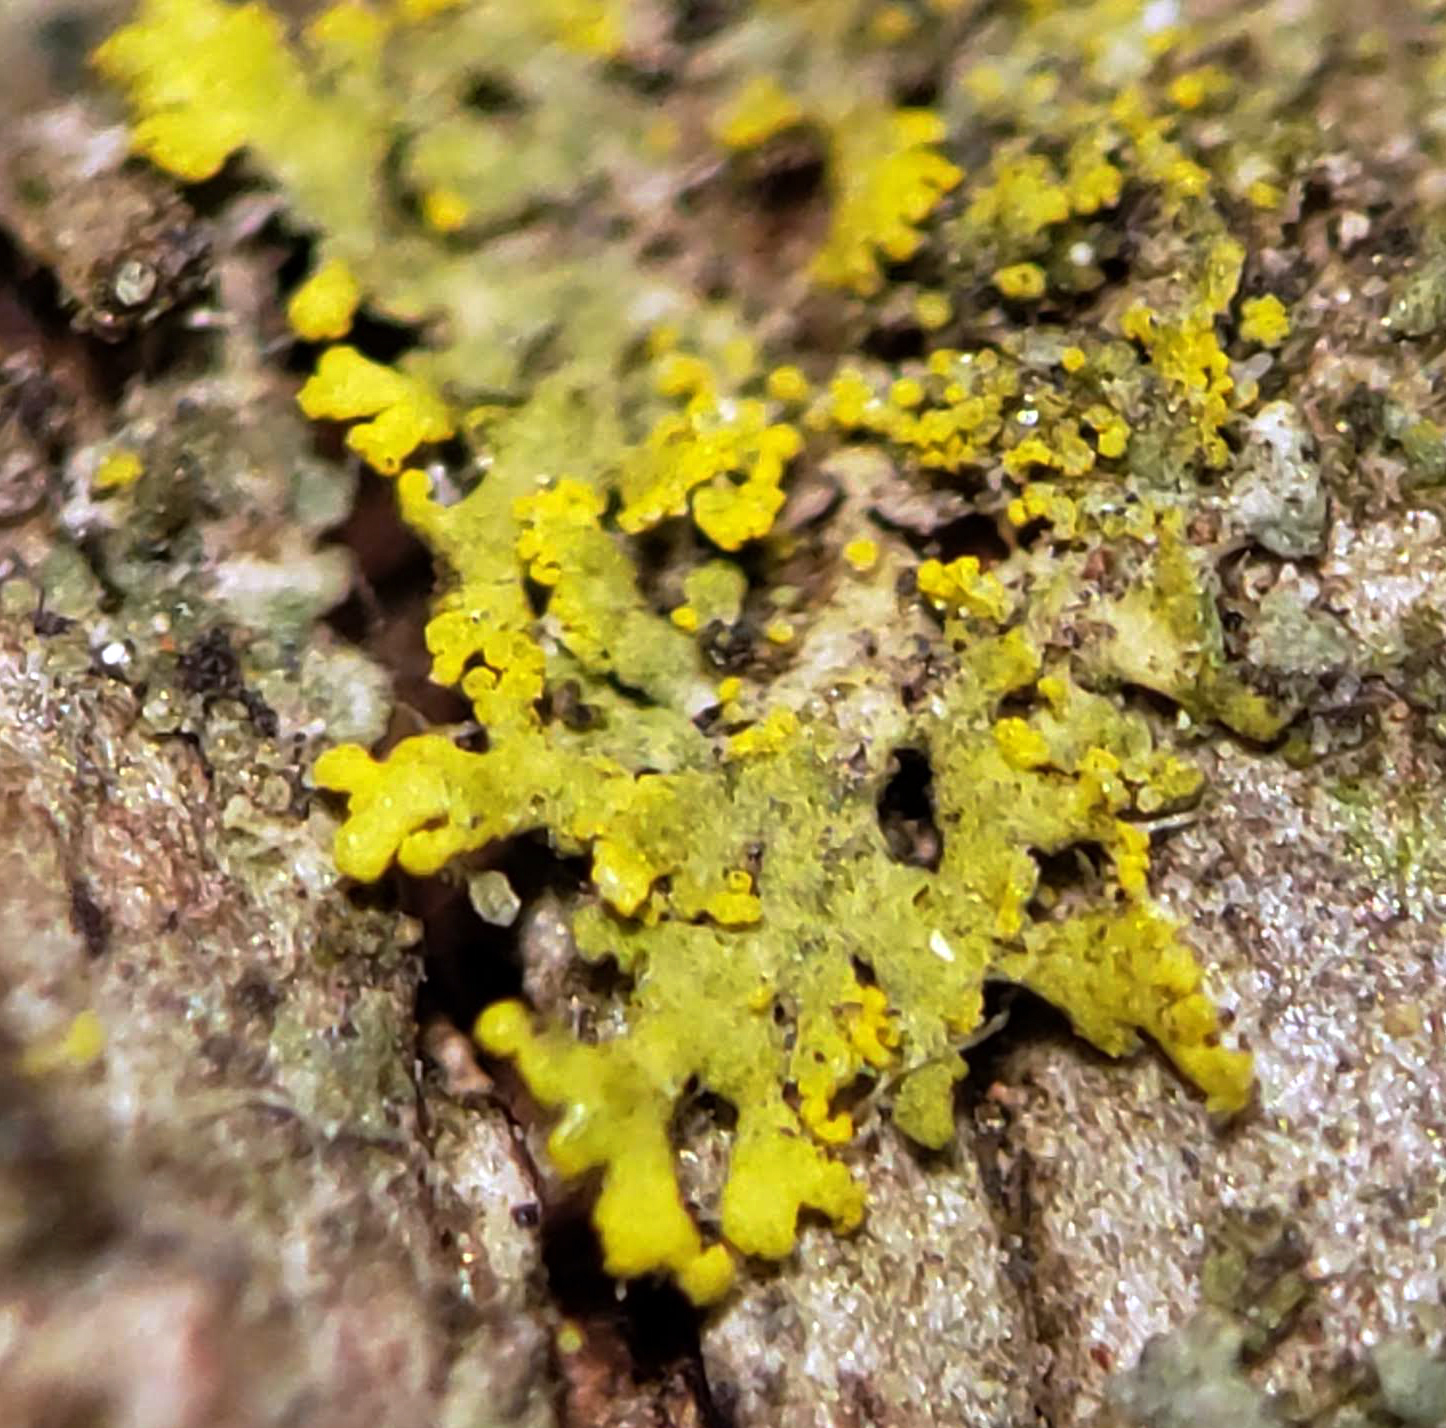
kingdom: Fungi
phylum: Ascomycota
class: Candelariomycetes
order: Candelariales
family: Candelariaceae
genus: Candelaria
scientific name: Candelaria concolor
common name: Candleflame lichen
